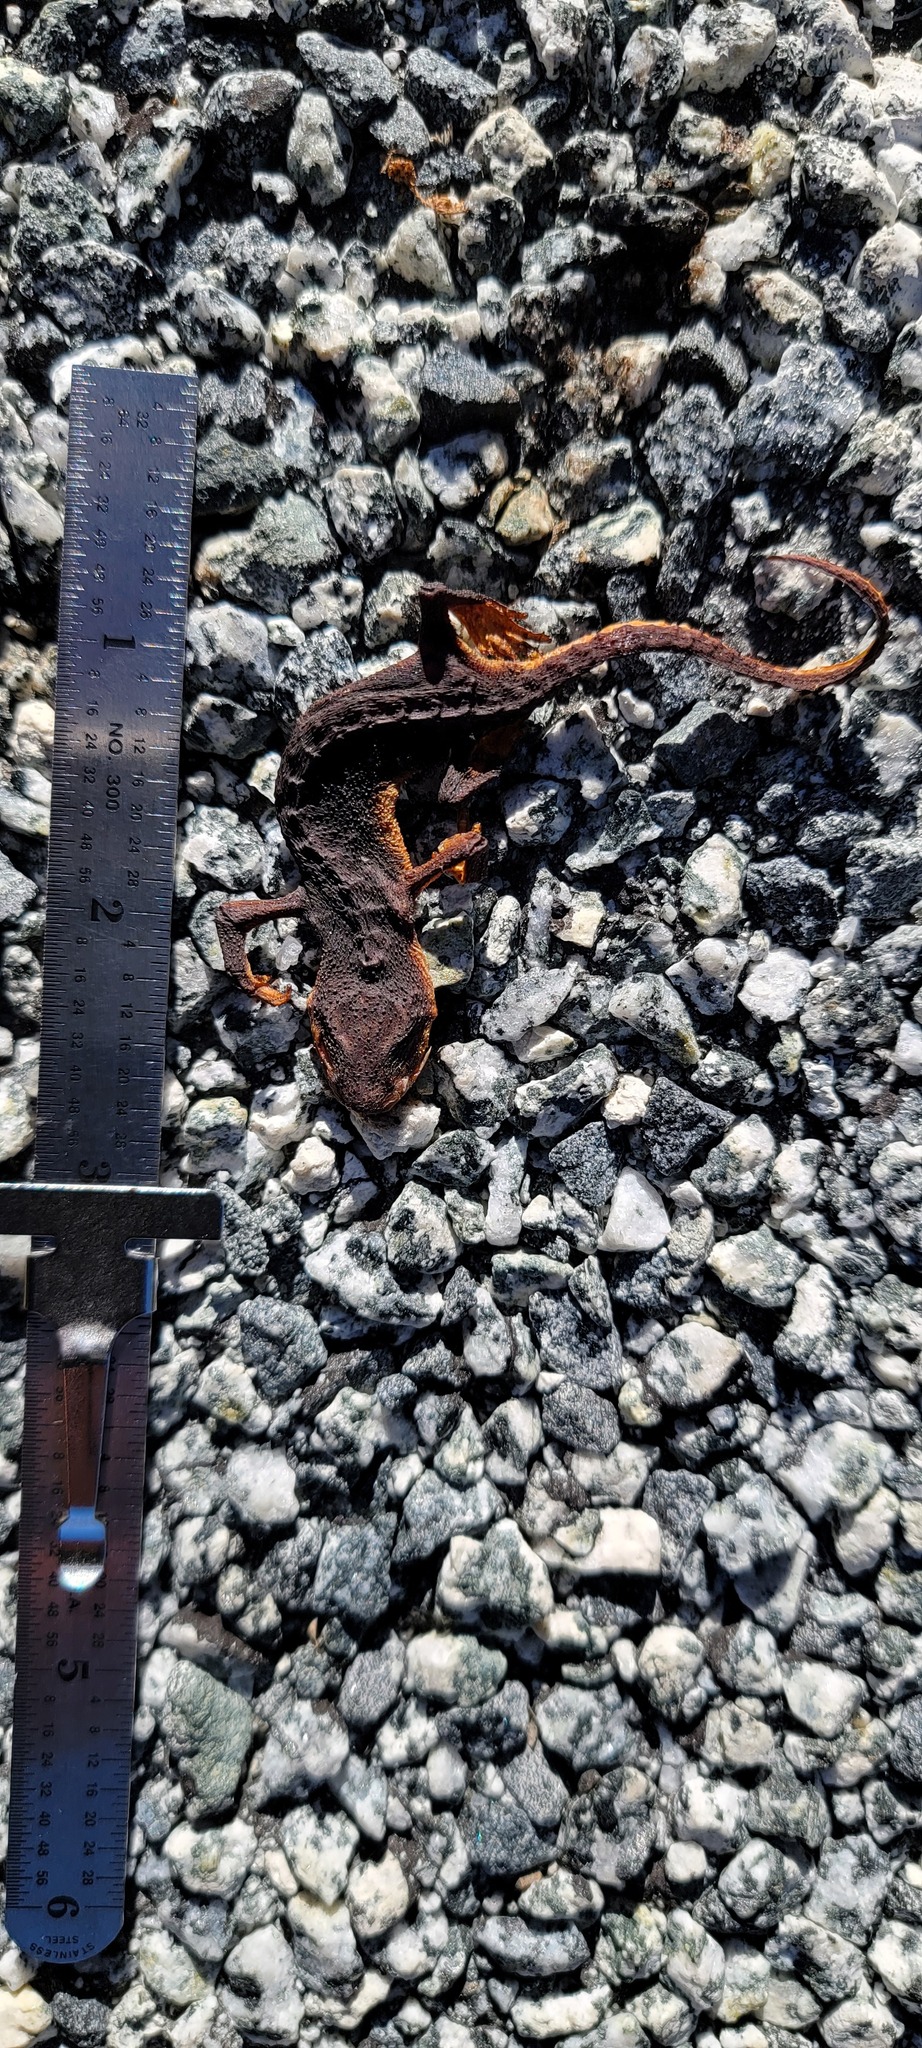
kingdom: Animalia
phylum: Chordata
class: Amphibia
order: Caudata
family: Salamandridae
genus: Taricha
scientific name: Taricha
